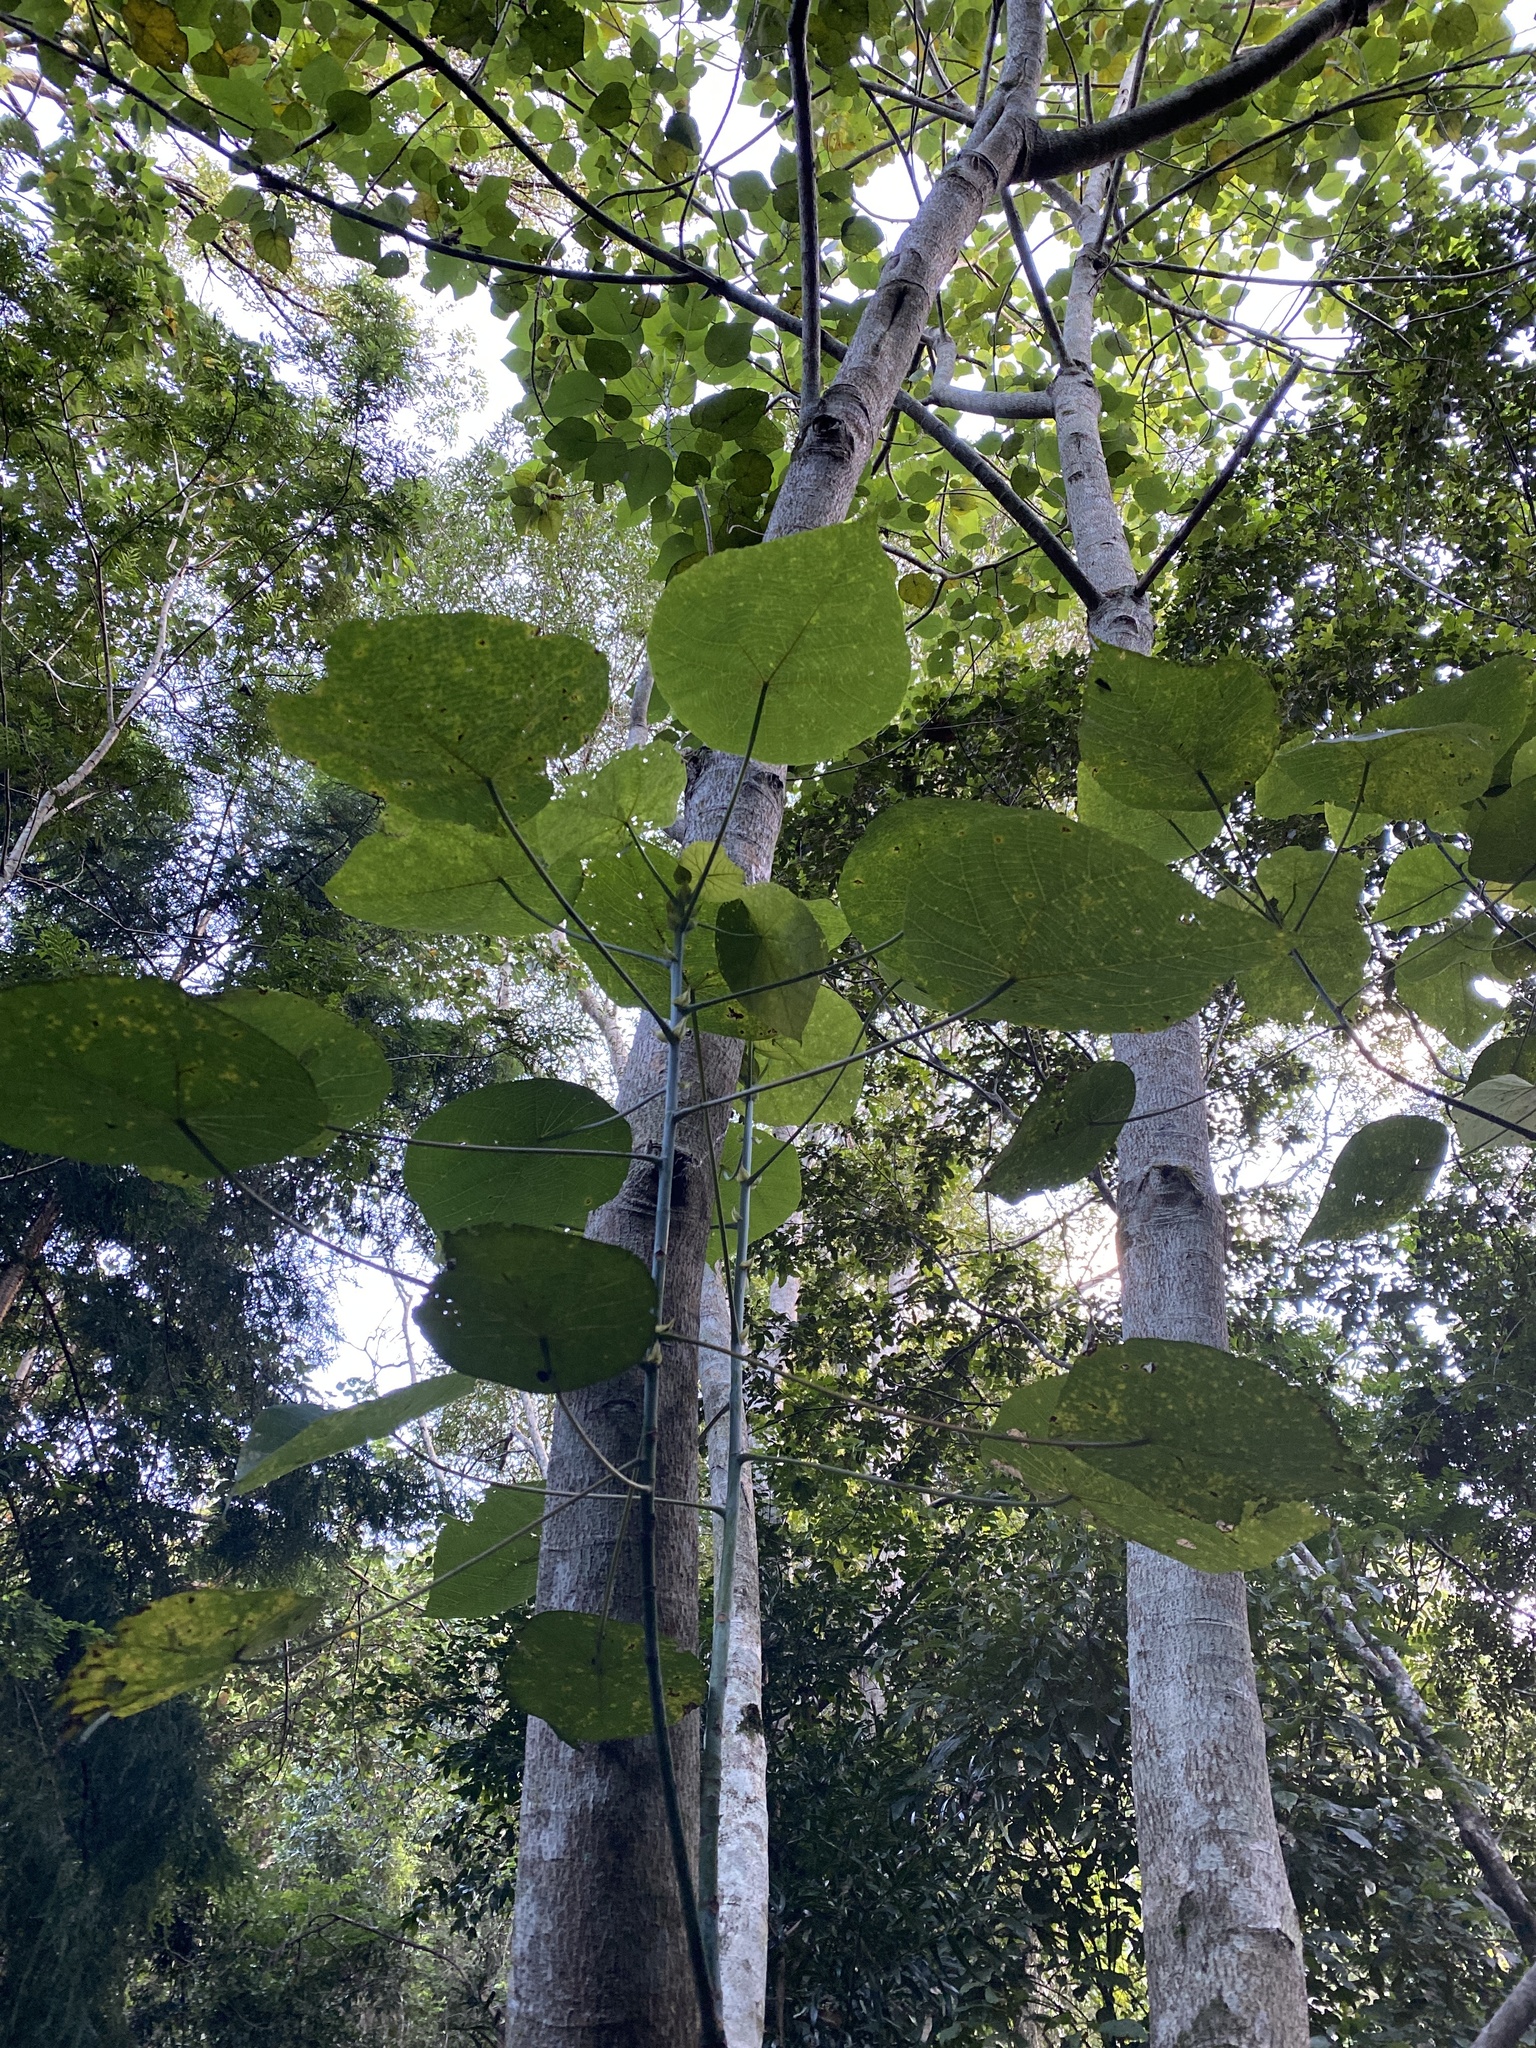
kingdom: Plantae
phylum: Tracheophyta
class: Magnoliopsida
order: Malpighiales
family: Euphorbiaceae
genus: Macaranga
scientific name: Macaranga tanarius
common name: Parasol leaf tree
